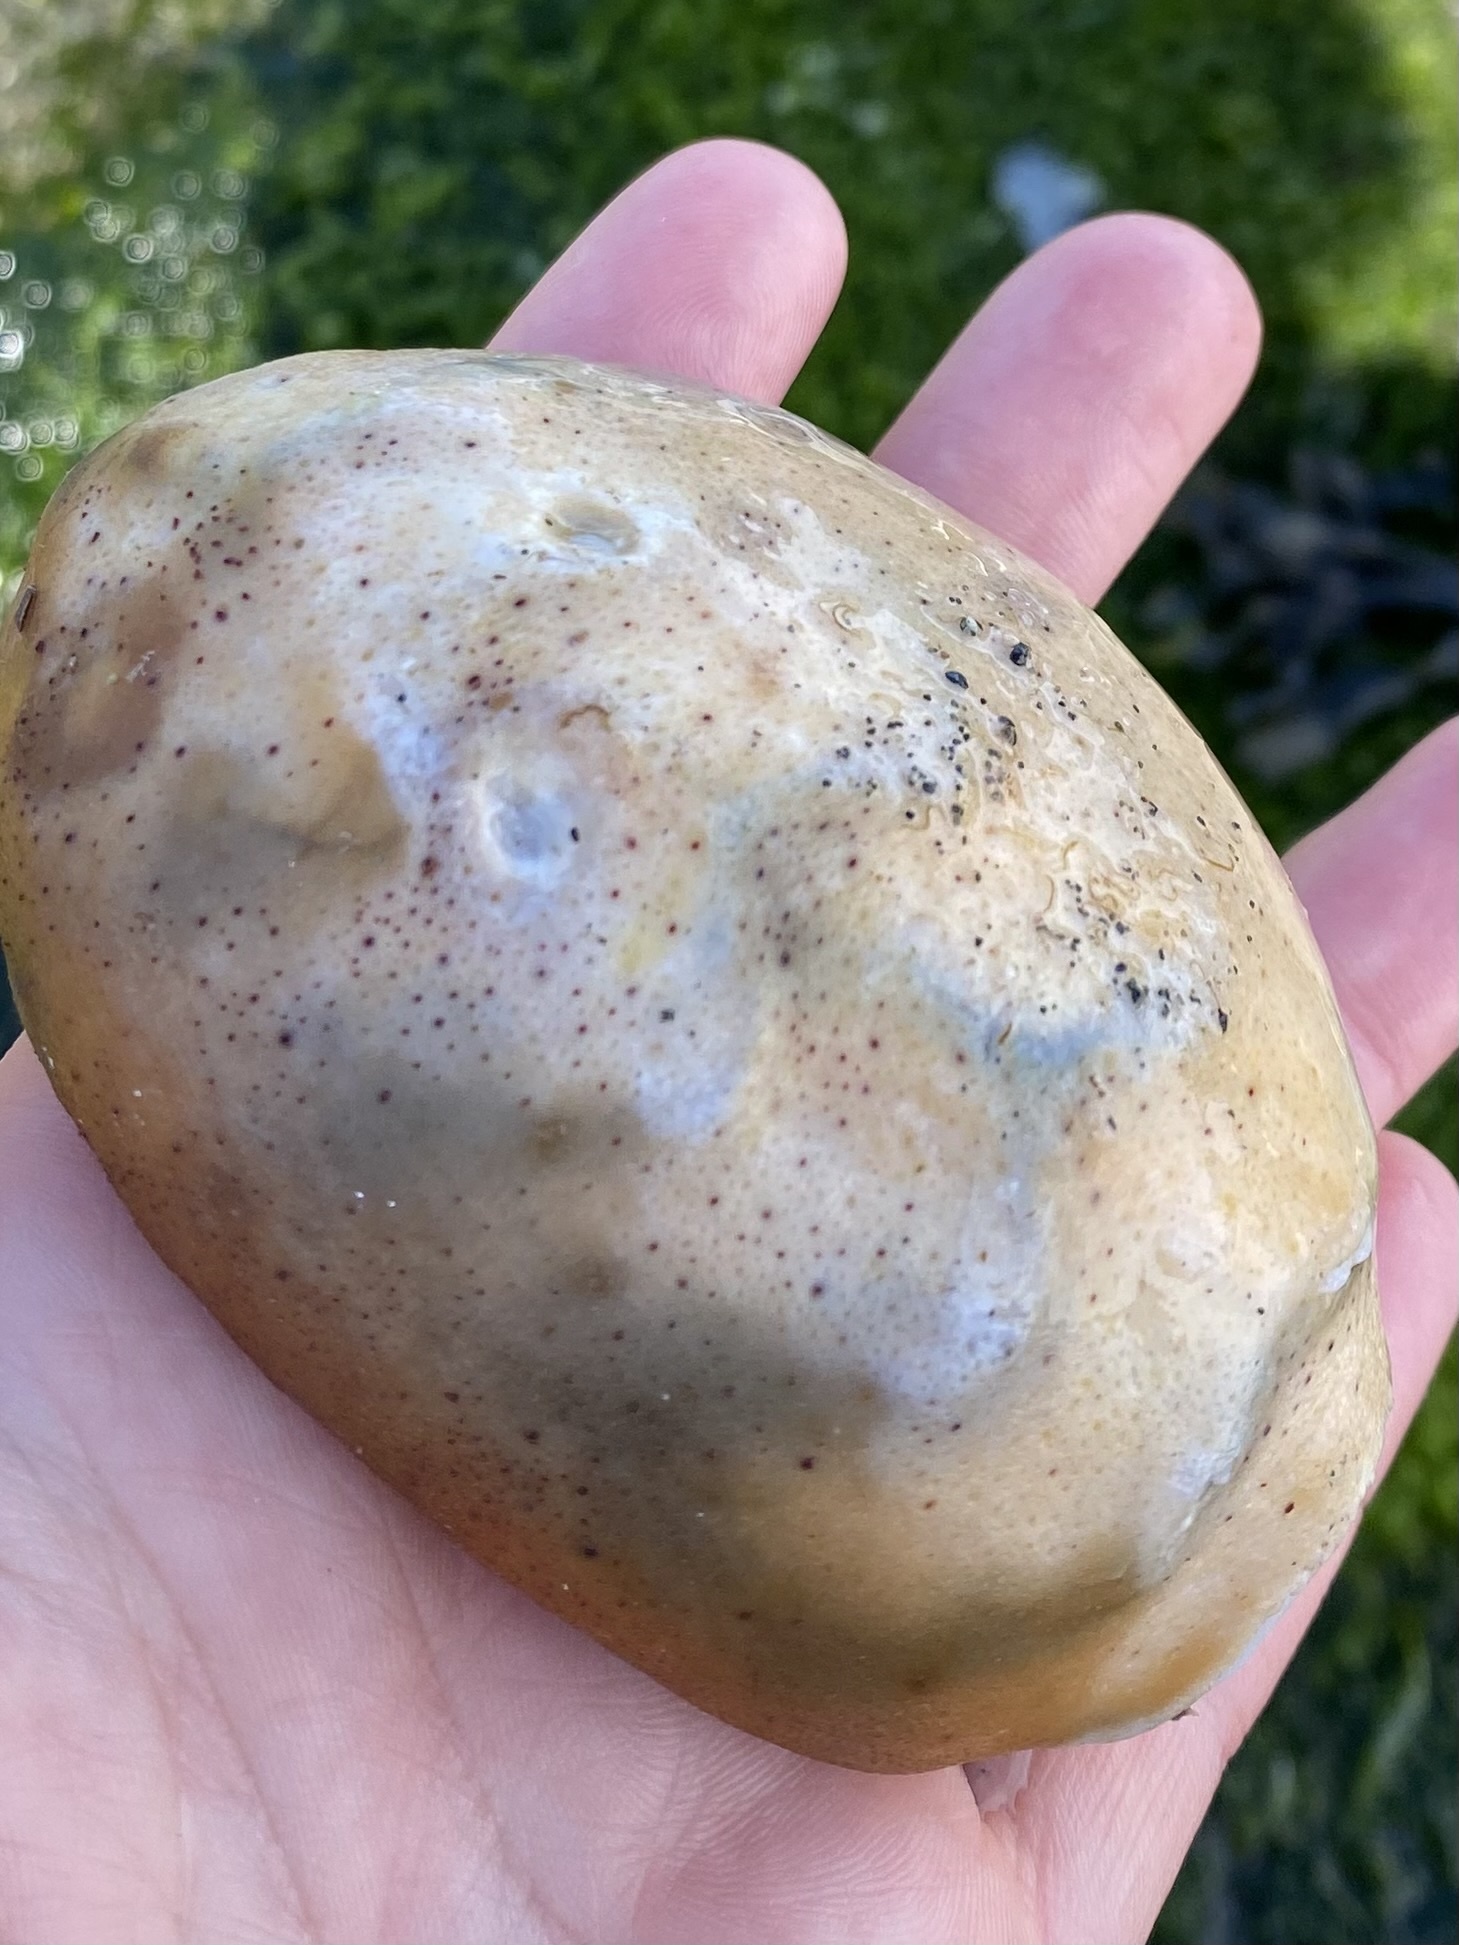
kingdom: Animalia
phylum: Mollusca
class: Polyplacophora
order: Chitonida
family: Acanthochitonidae
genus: Cryptochiton
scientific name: Cryptochiton stelleri
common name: Giant pacific chiton
